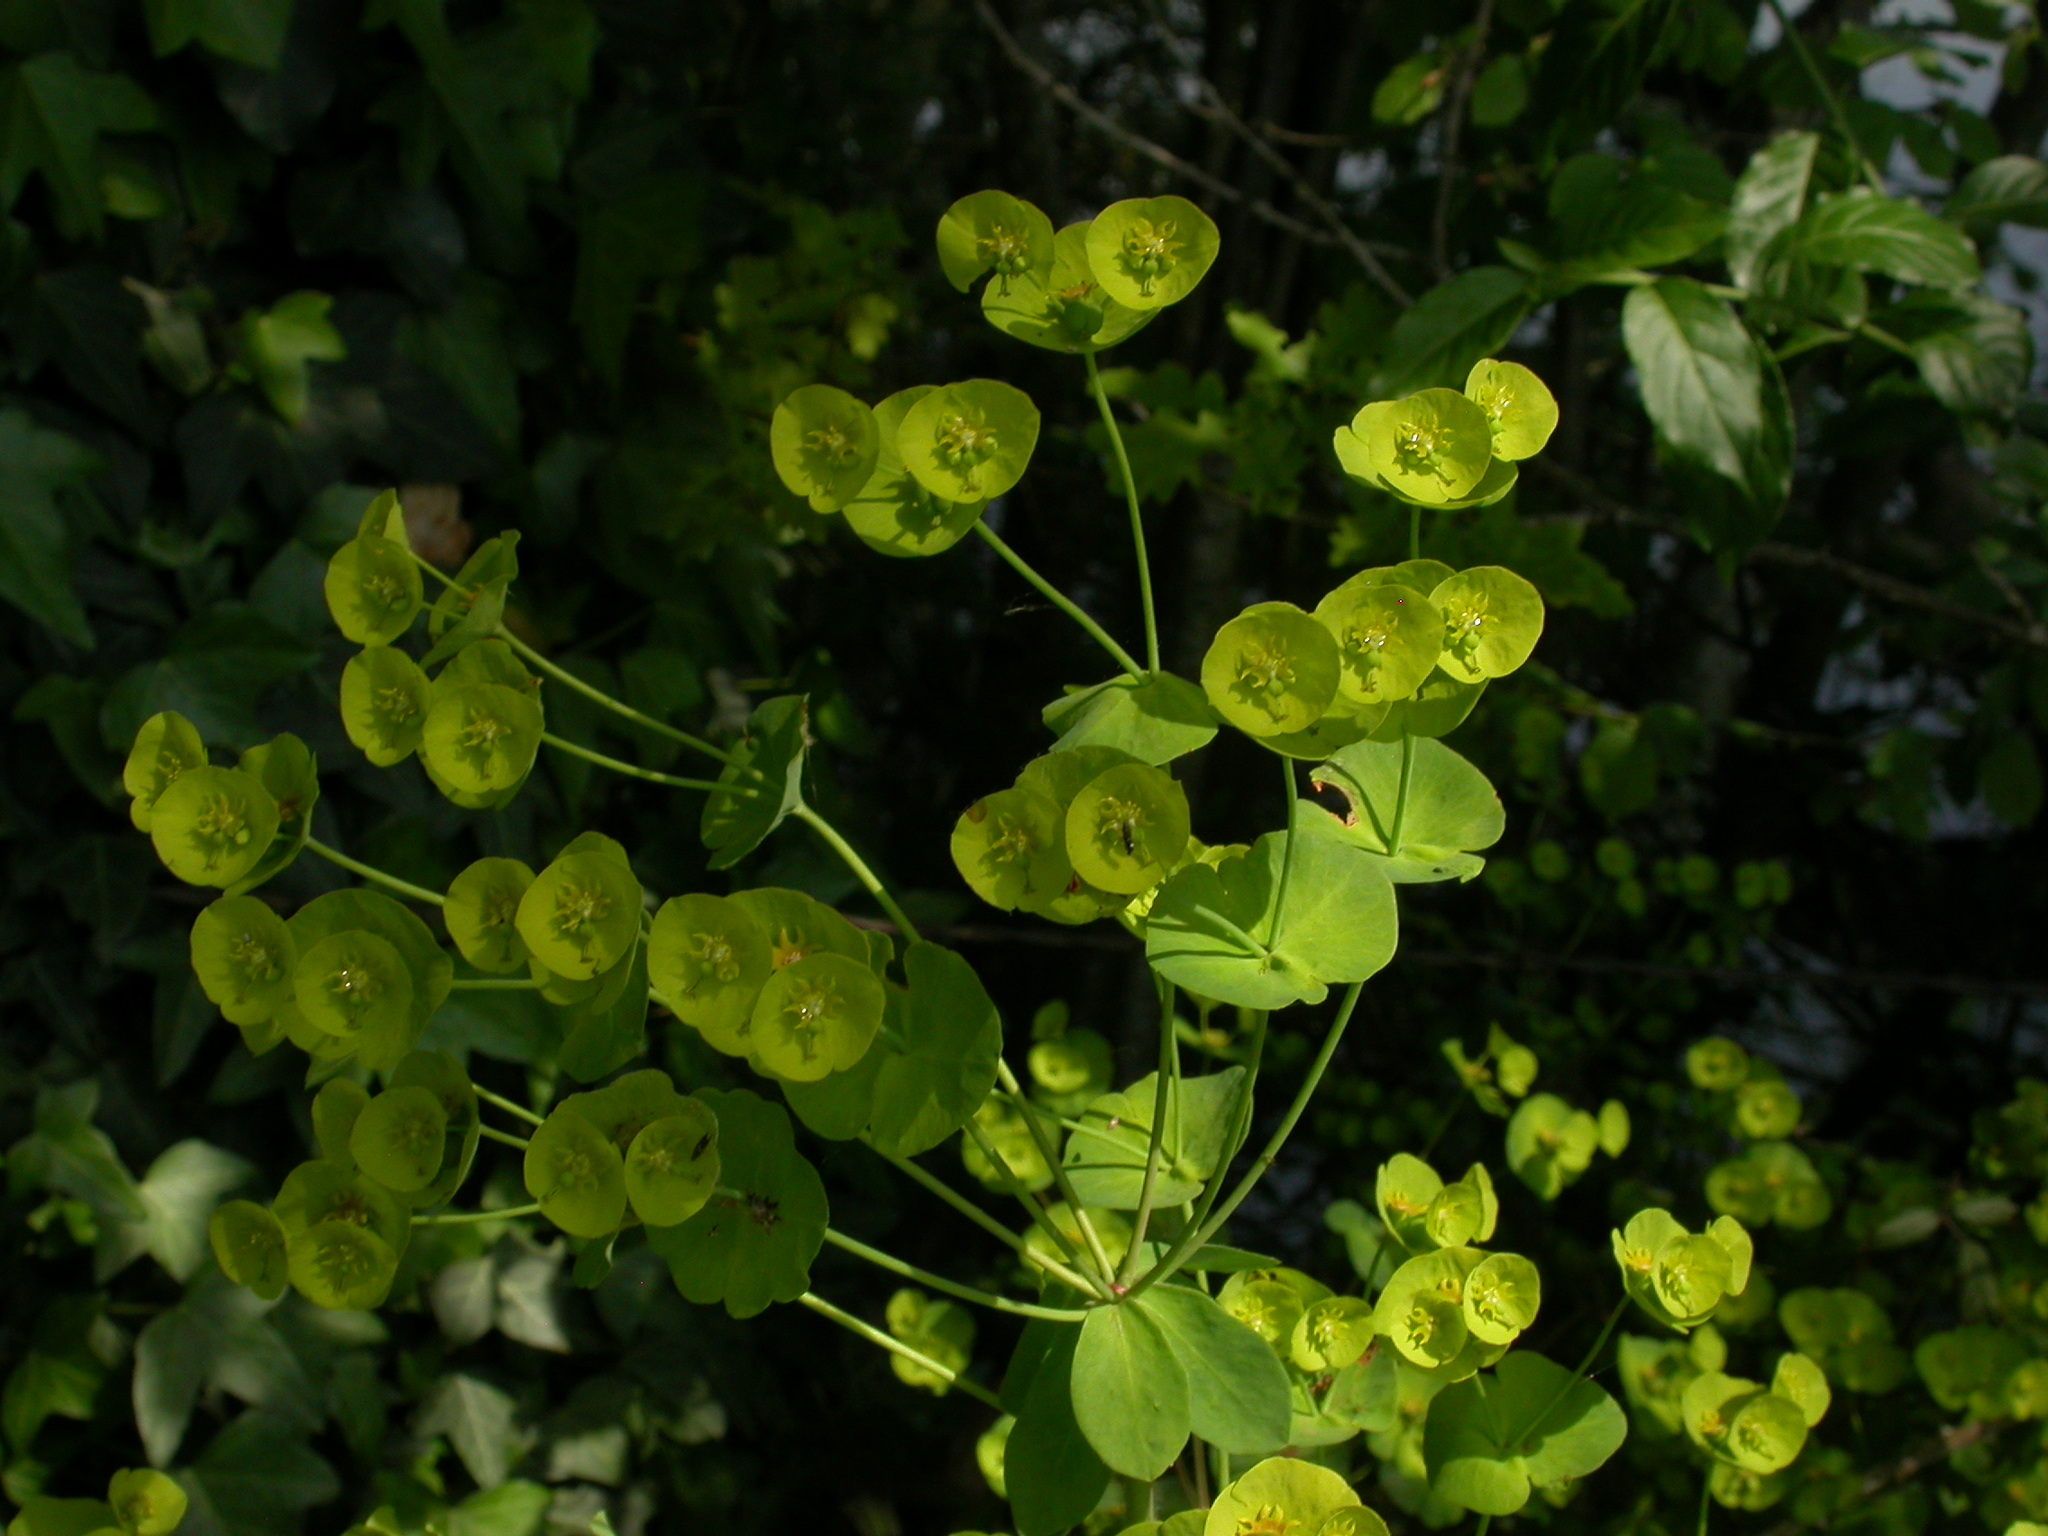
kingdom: Plantae
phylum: Tracheophyta
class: Magnoliopsida
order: Malpighiales
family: Euphorbiaceae
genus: Euphorbia
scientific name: Euphorbia amygdaloides
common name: Wood spurge
